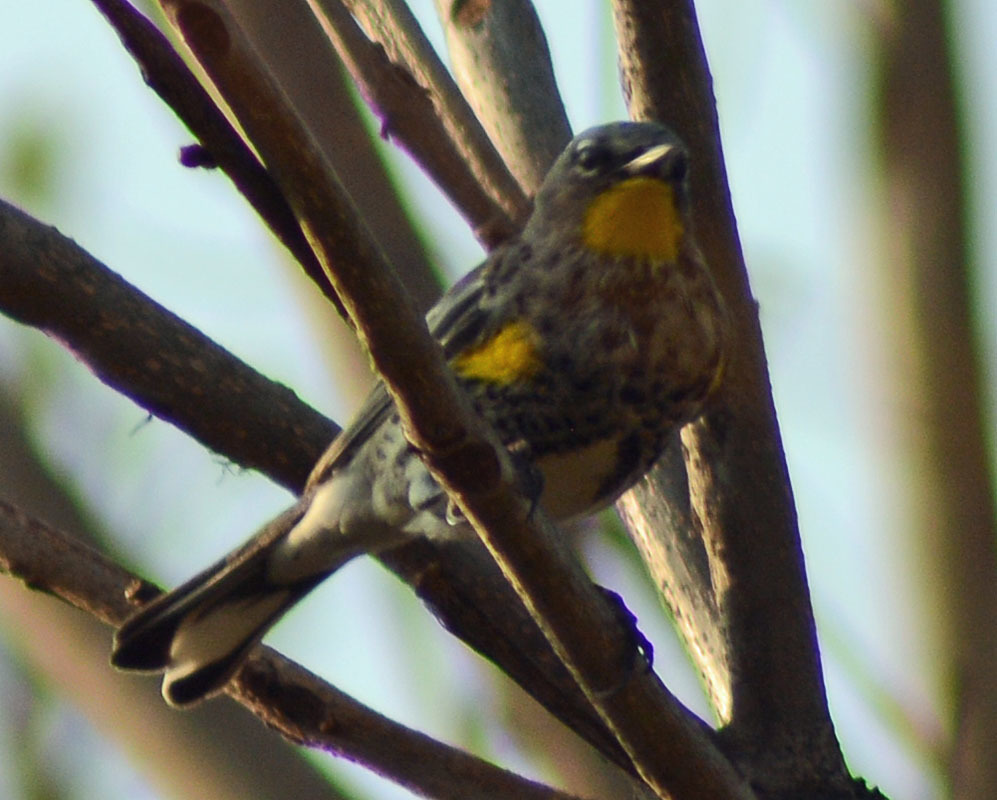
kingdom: Animalia
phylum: Chordata
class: Aves
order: Passeriformes
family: Parulidae
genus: Setophaga
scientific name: Setophaga auduboni
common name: Audubon's warbler
